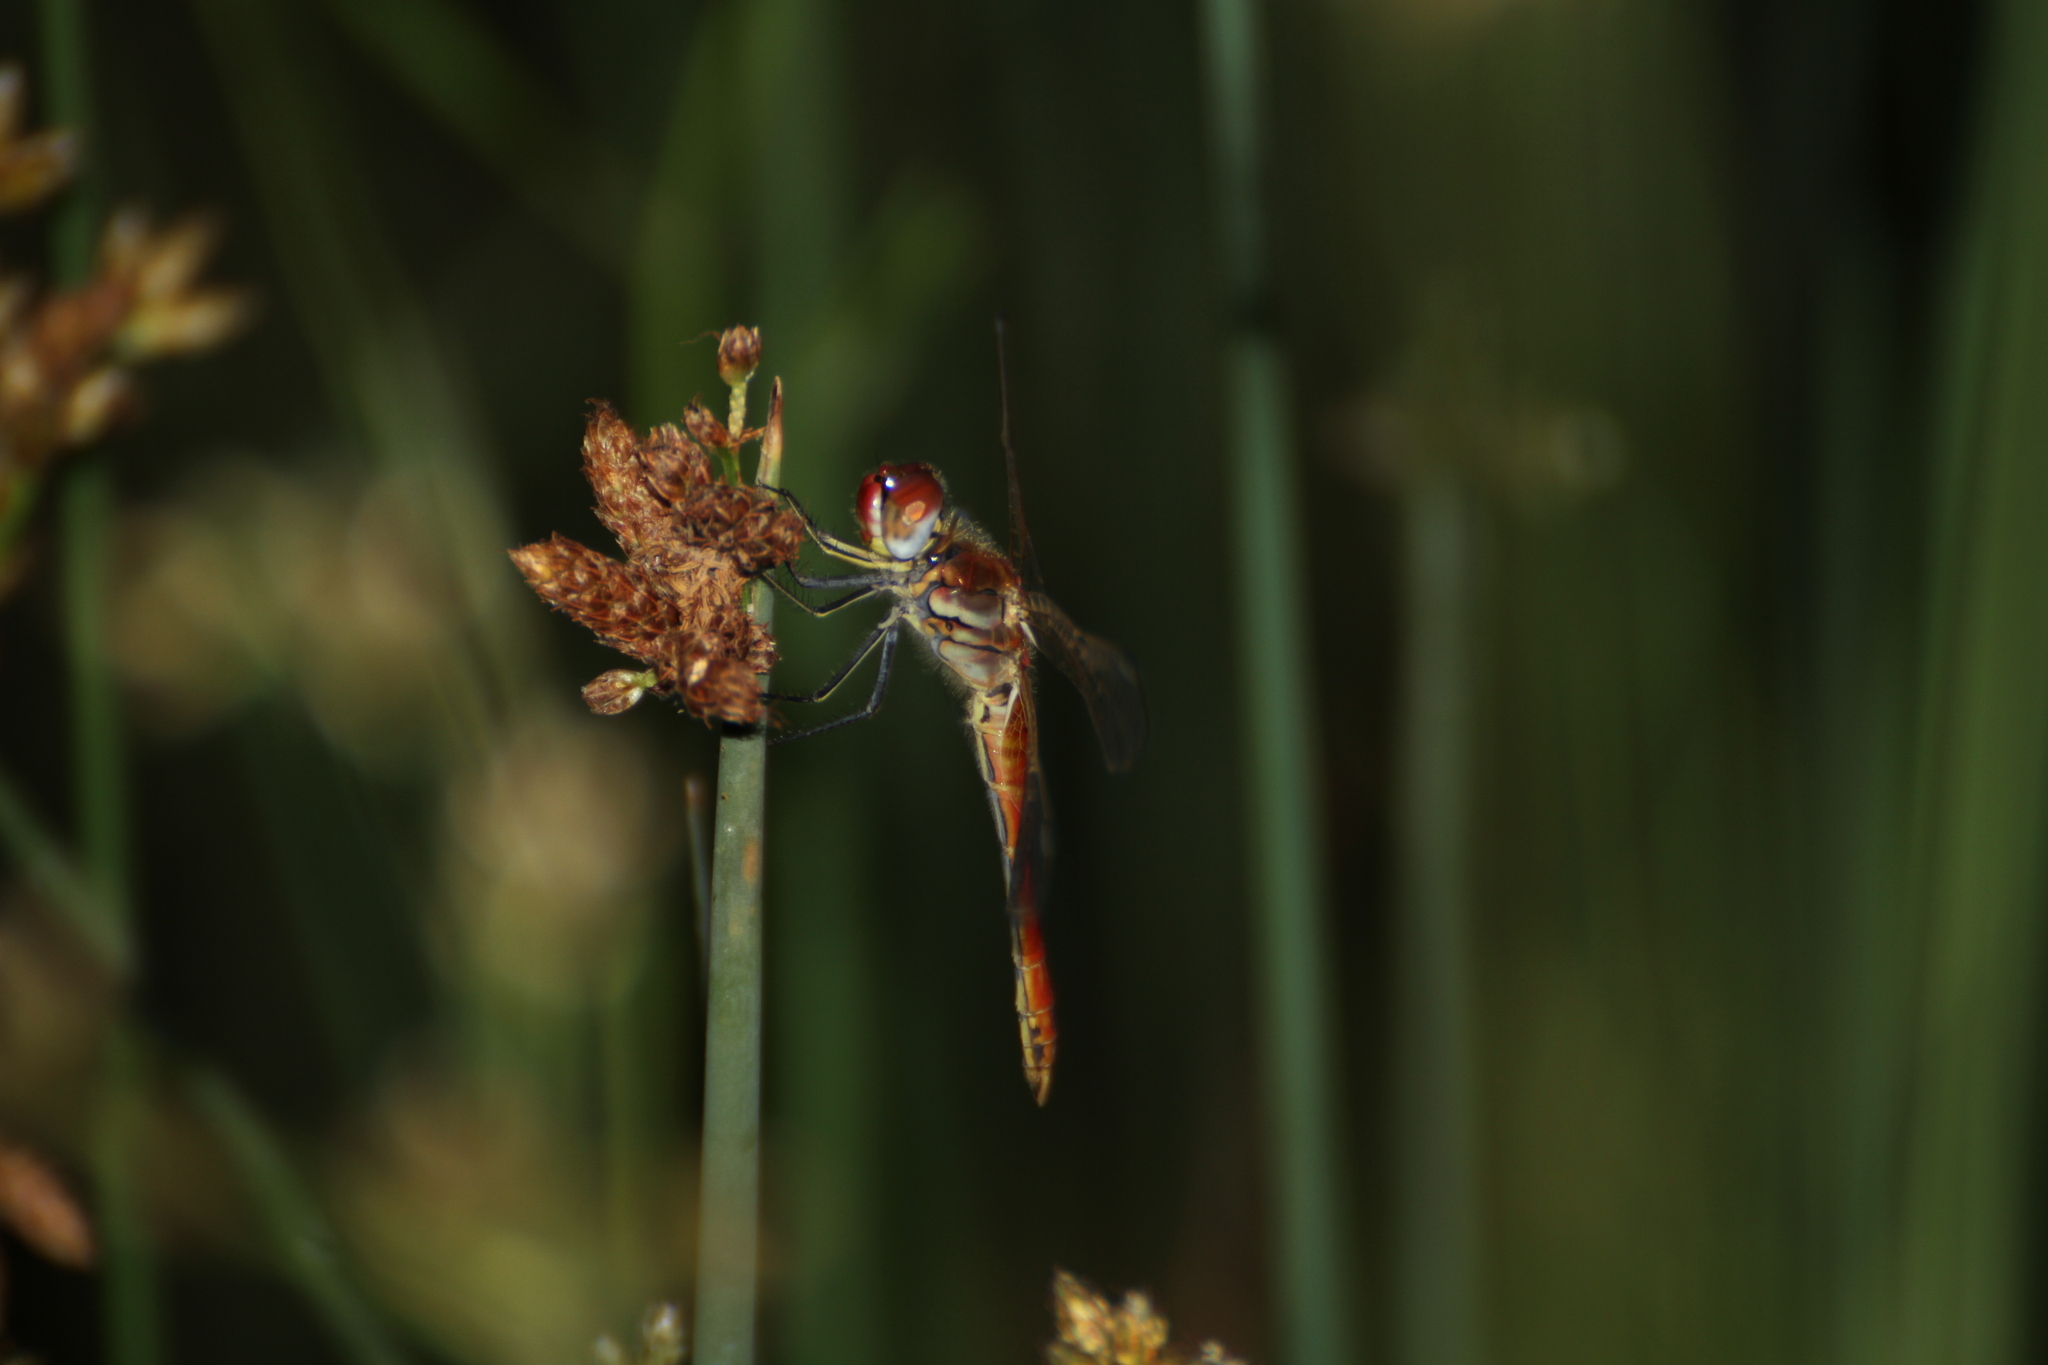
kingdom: Animalia
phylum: Arthropoda
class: Insecta
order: Odonata
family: Libellulidae
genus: Sympetrum
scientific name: Sympetrum fonscolombii
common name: Red-veined darter
